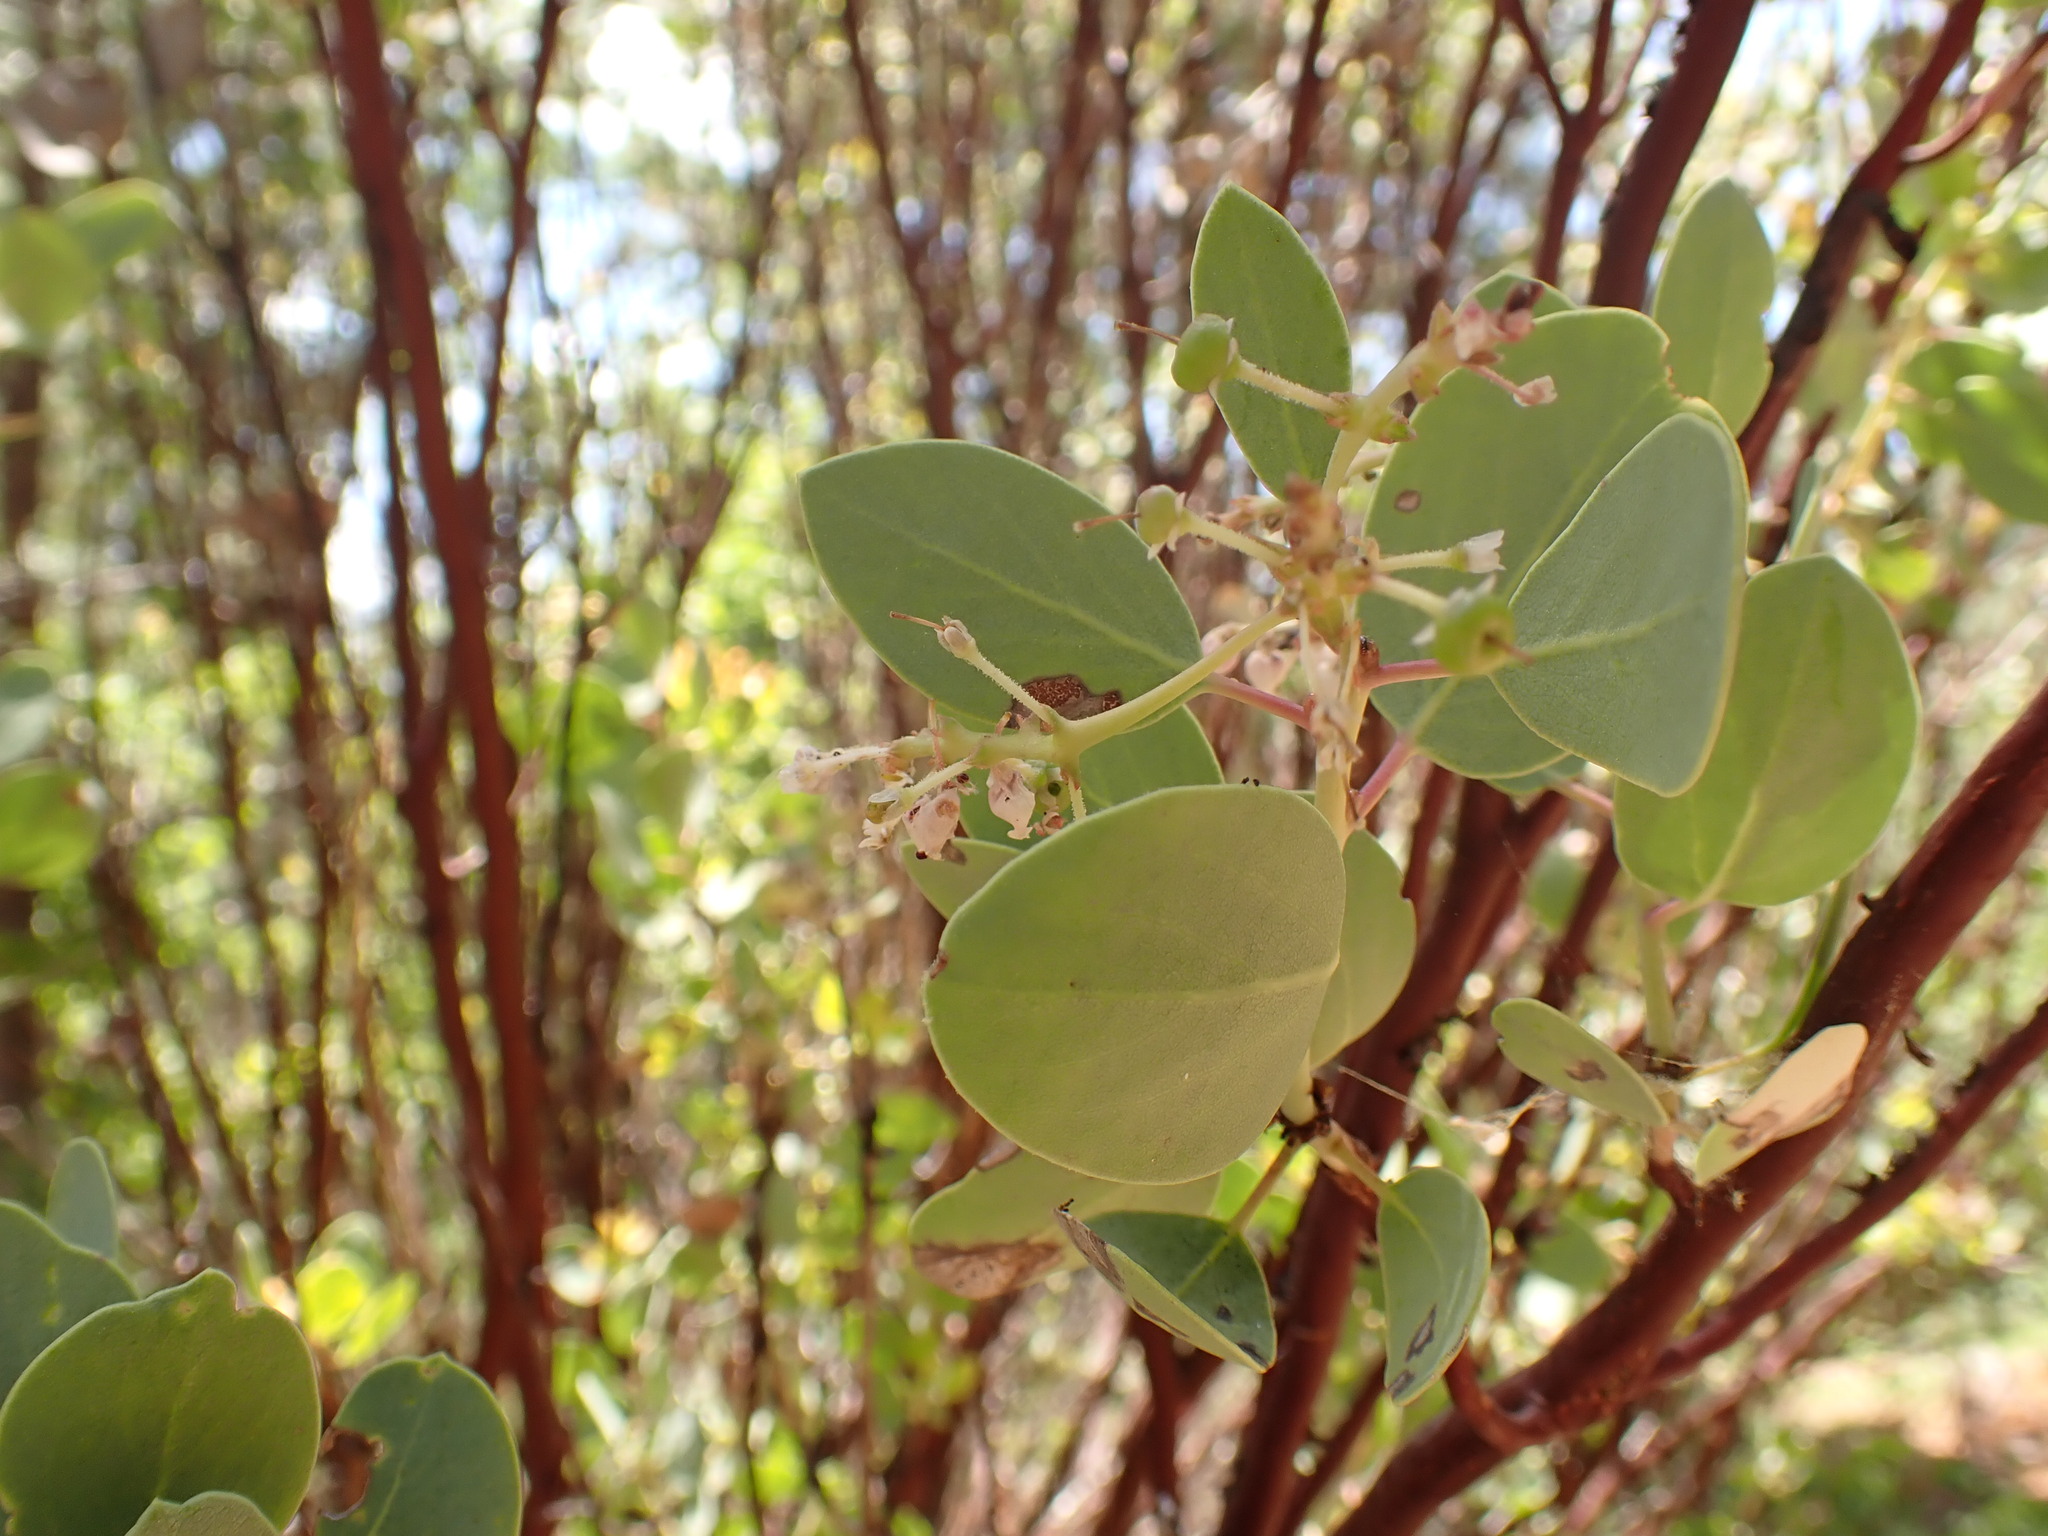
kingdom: Plantae
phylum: Tracheophyta
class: Magnoliopsida
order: Ericales
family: Ericaceae
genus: Arctostaphylos
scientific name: Arctostaphylos viscida
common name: White-leaf manzanita
